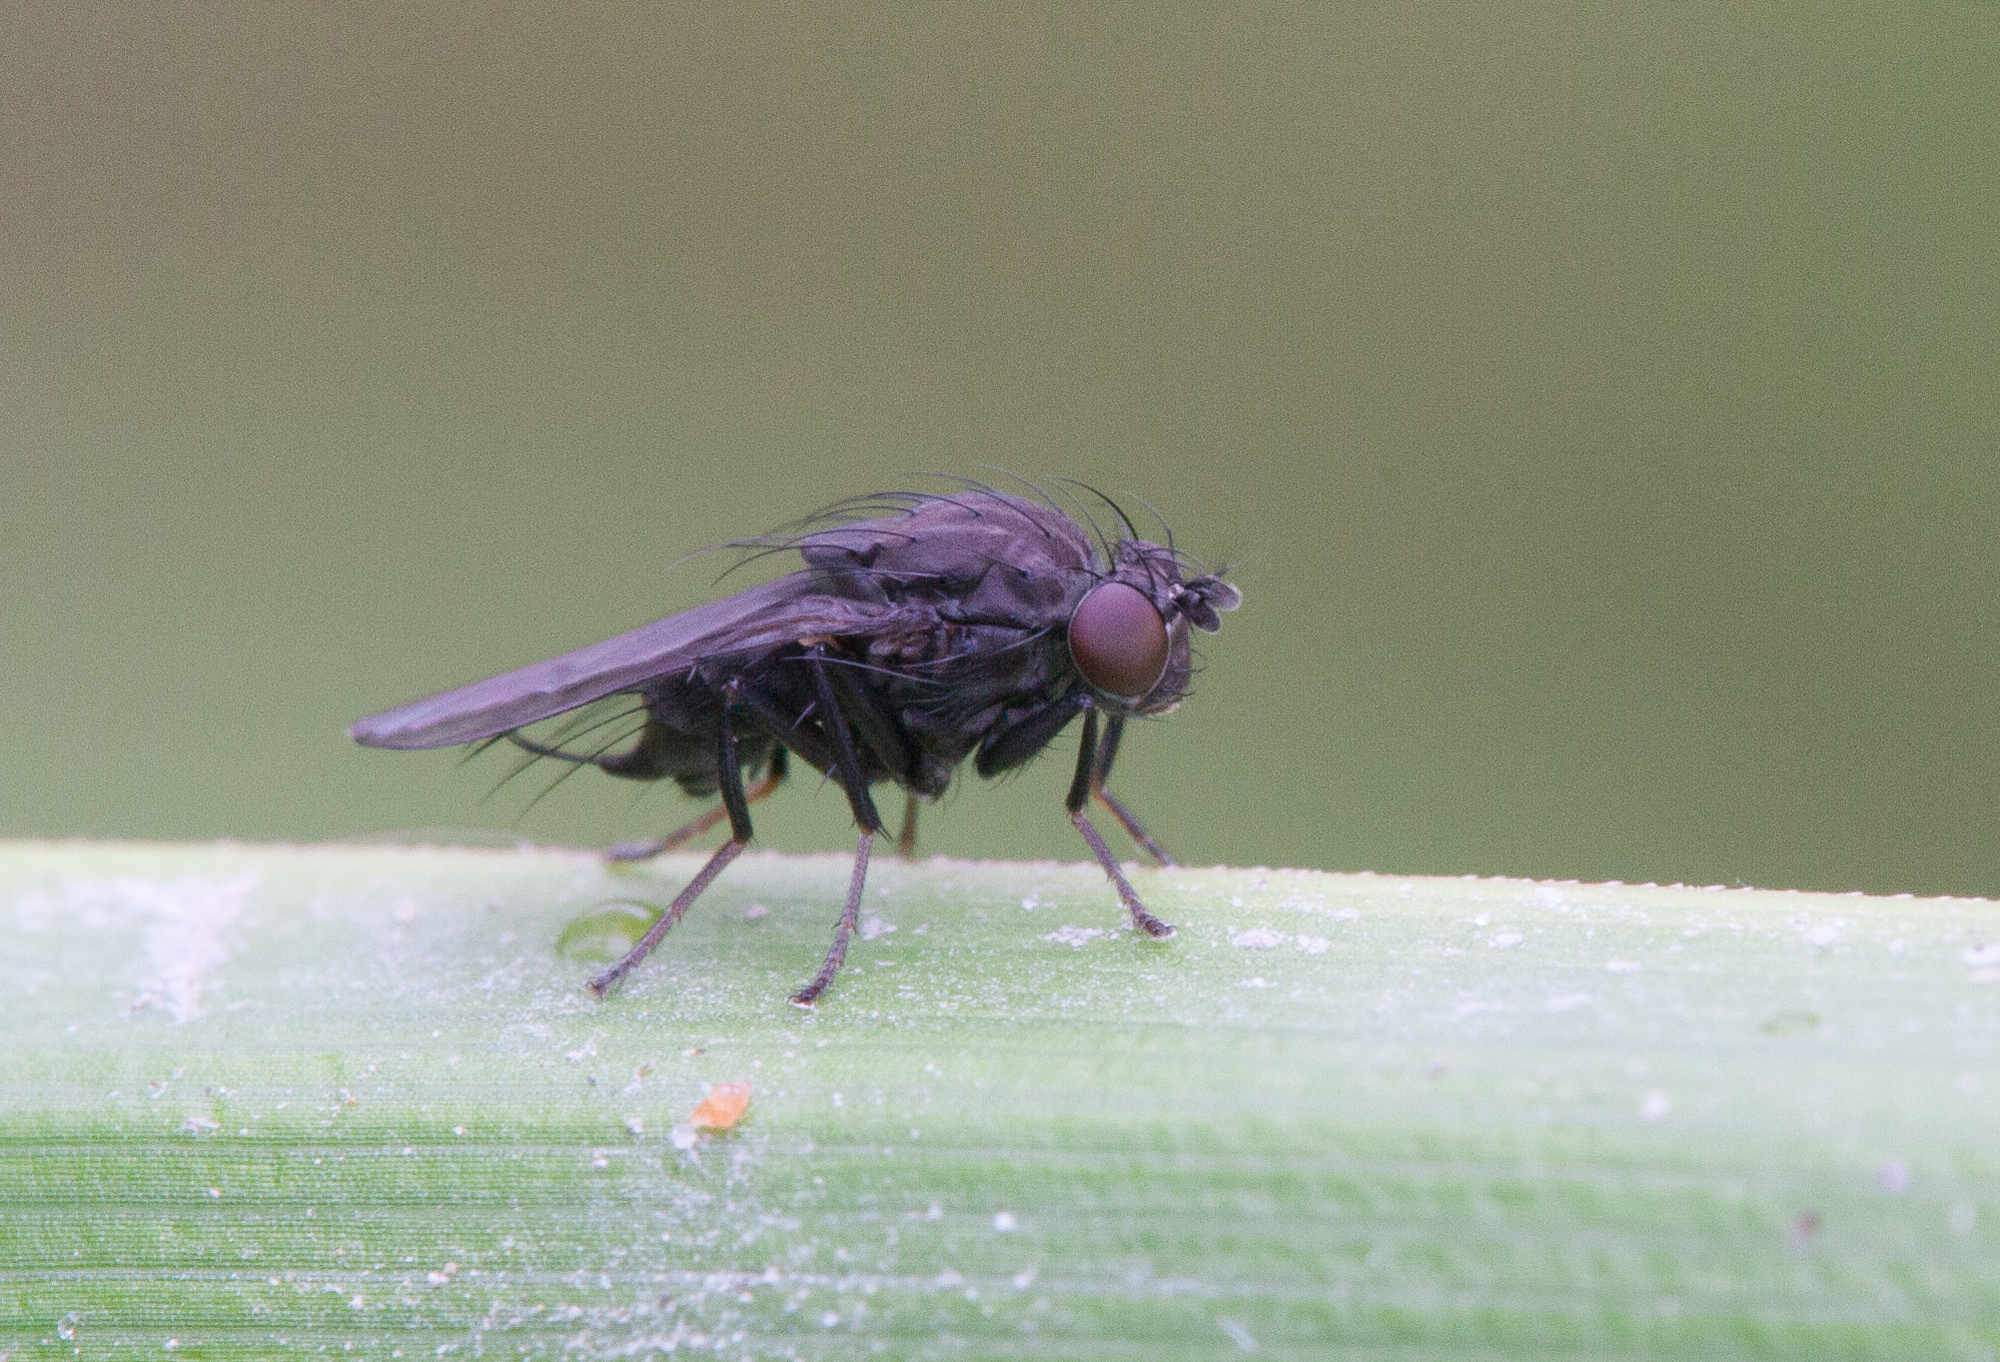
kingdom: Animalia
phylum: Arthropoda
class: Insecta
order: Diptera
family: Ephydridae
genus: Dichaeta
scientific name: Dichaeta caudata
